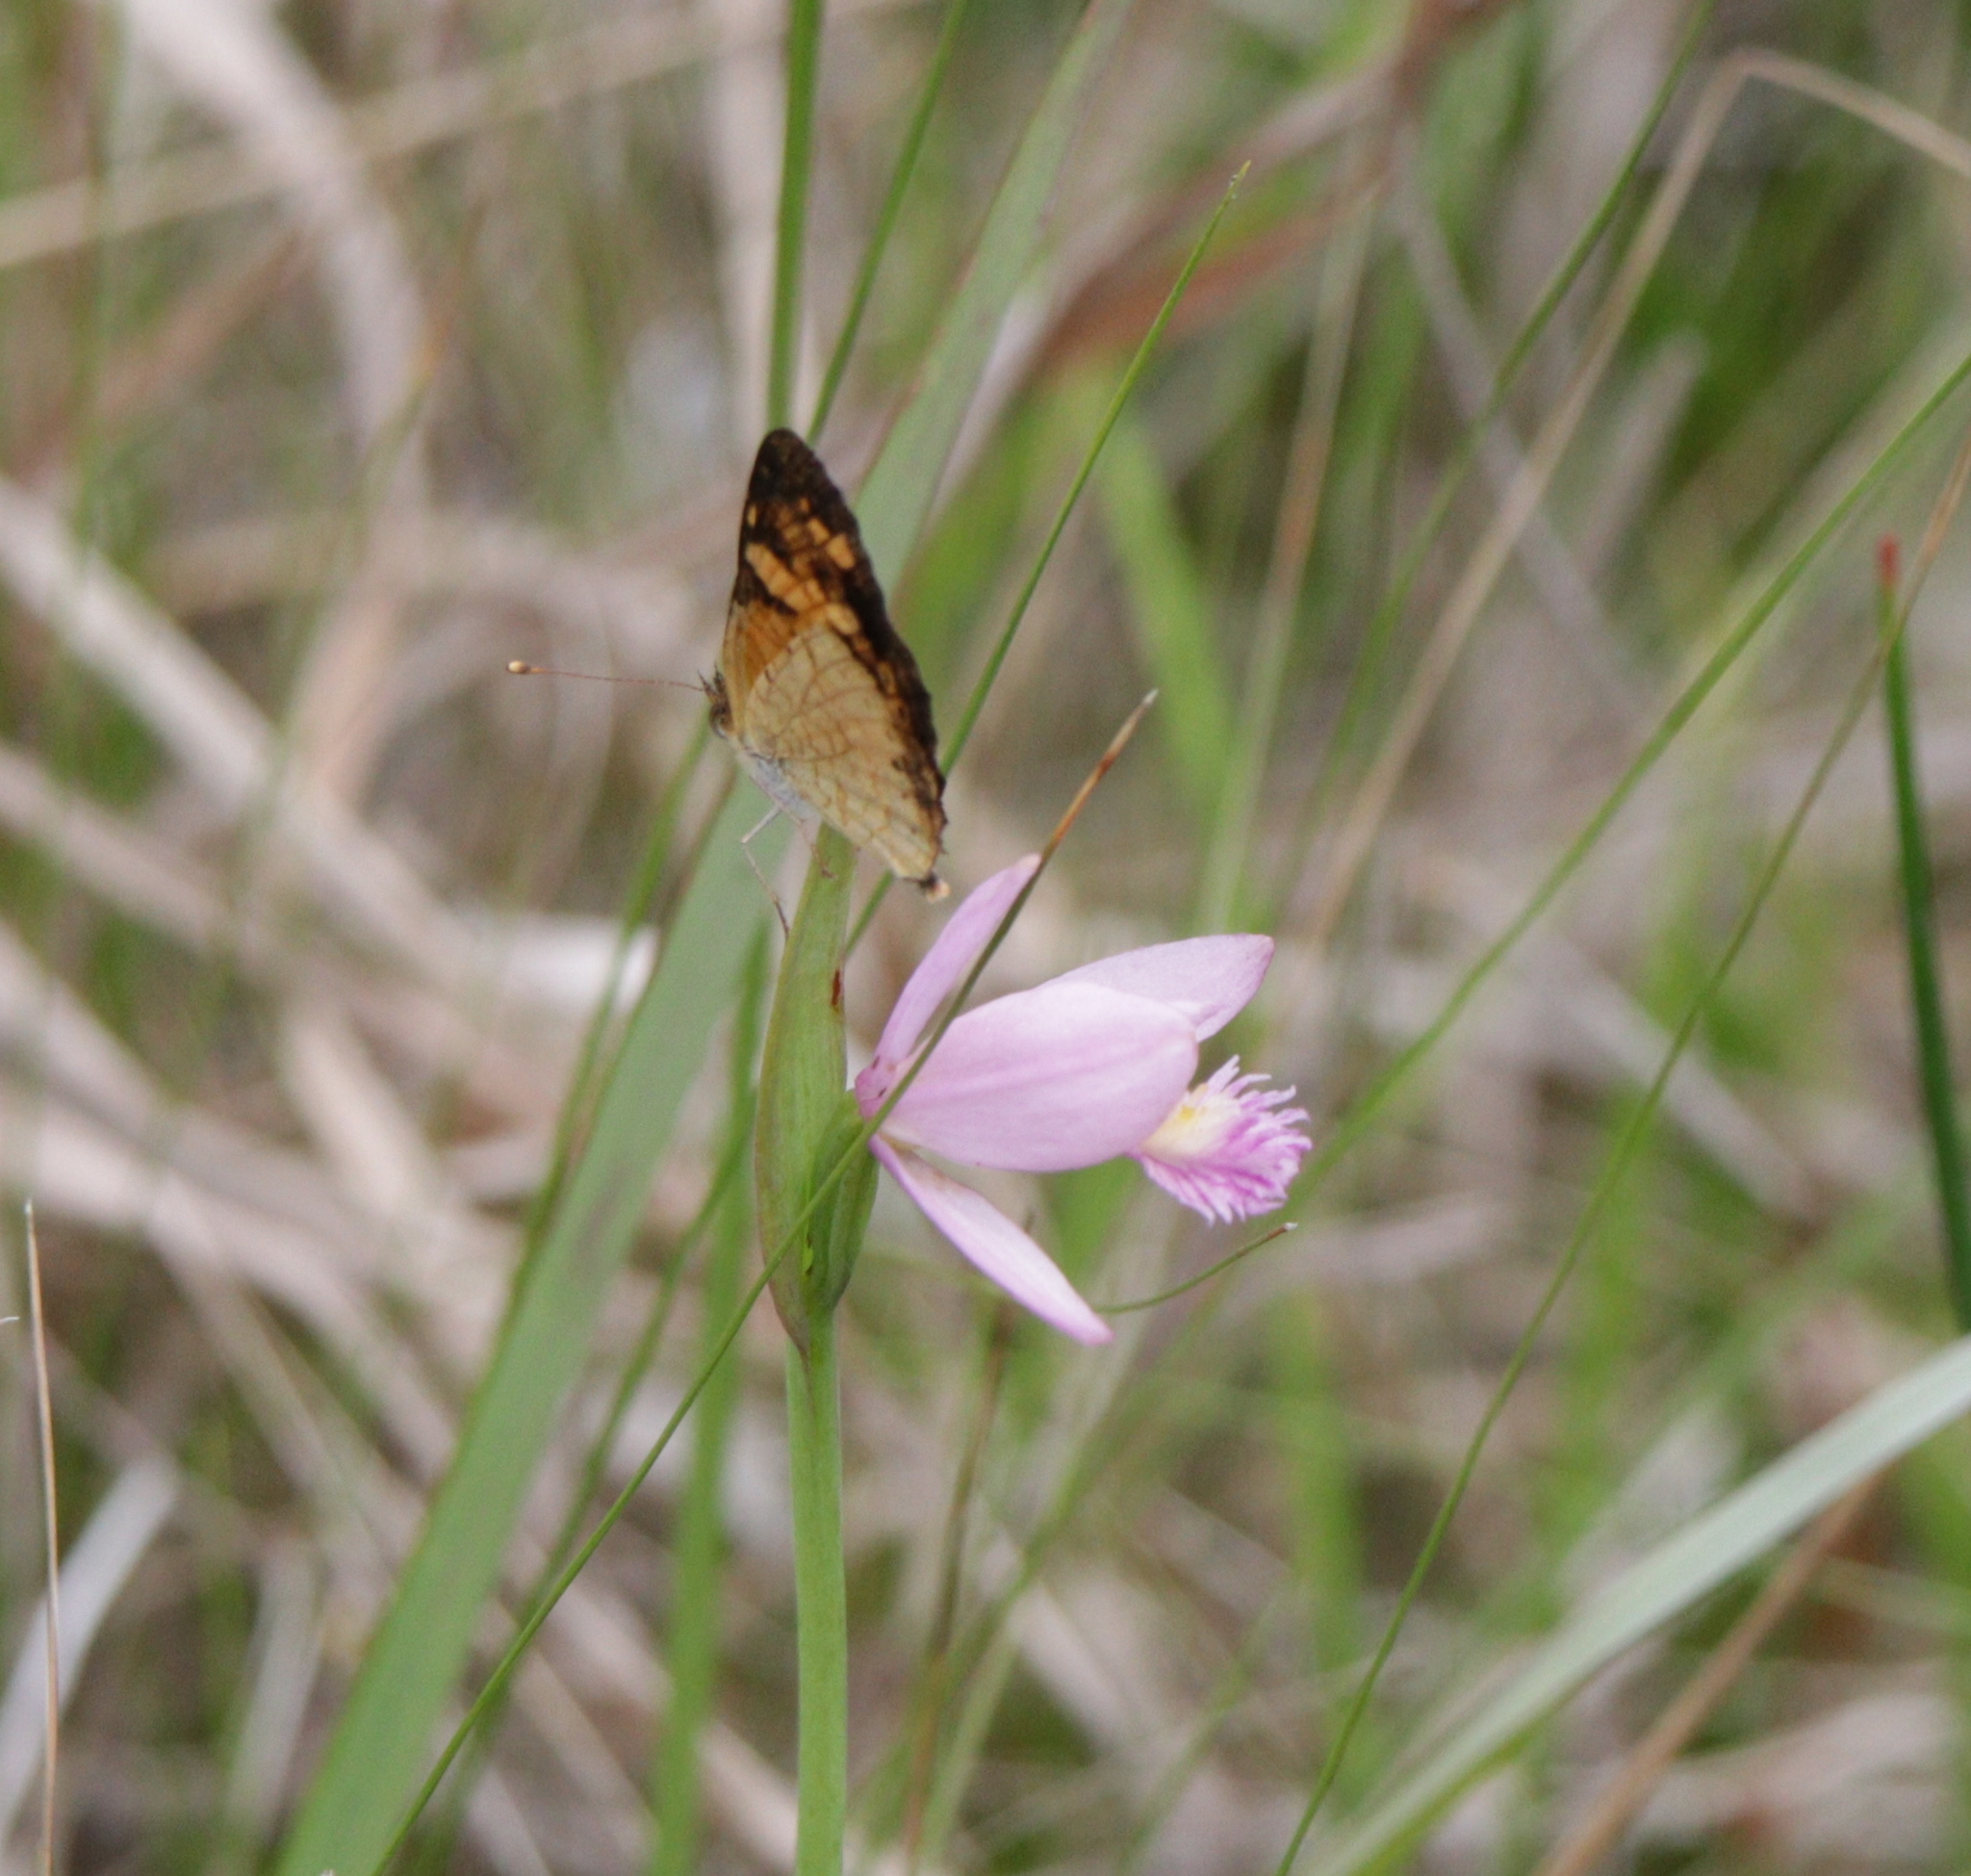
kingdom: Plantae
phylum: Tracheophyta
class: Liliopsida
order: Asparagales
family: Orchidaceae
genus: Pogonia
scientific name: Pogonia ophioglossoides
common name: Rose pogonia
